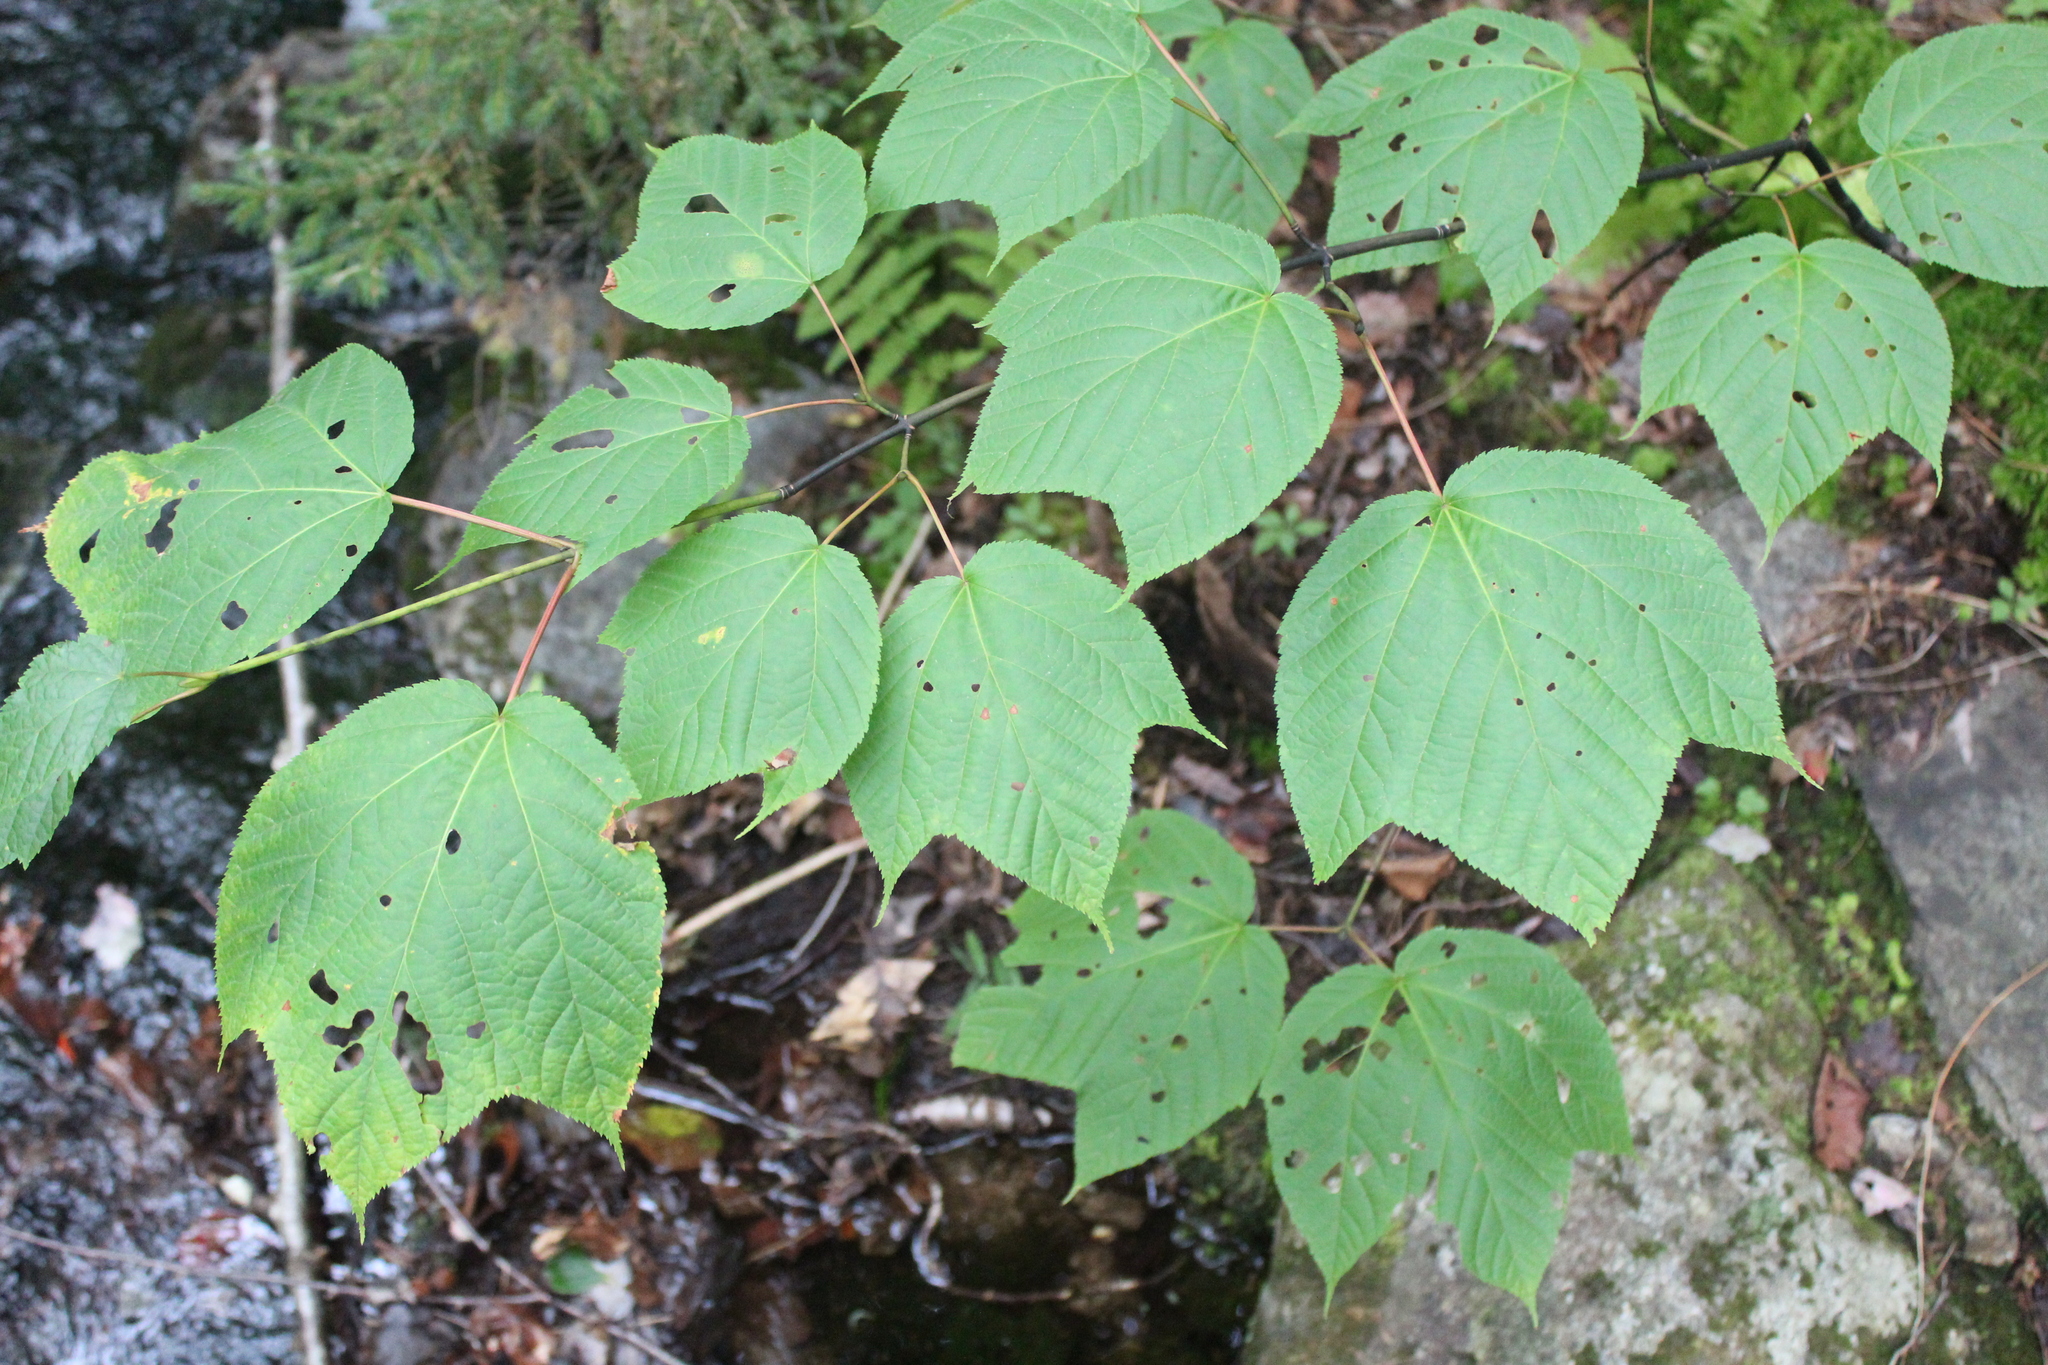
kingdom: Plantae
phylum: Tracheophyta
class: Magnoliopsida
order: Sapindales
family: Sapindaceae
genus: Acer
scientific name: Acer pensylvanicum
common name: Moosewood
